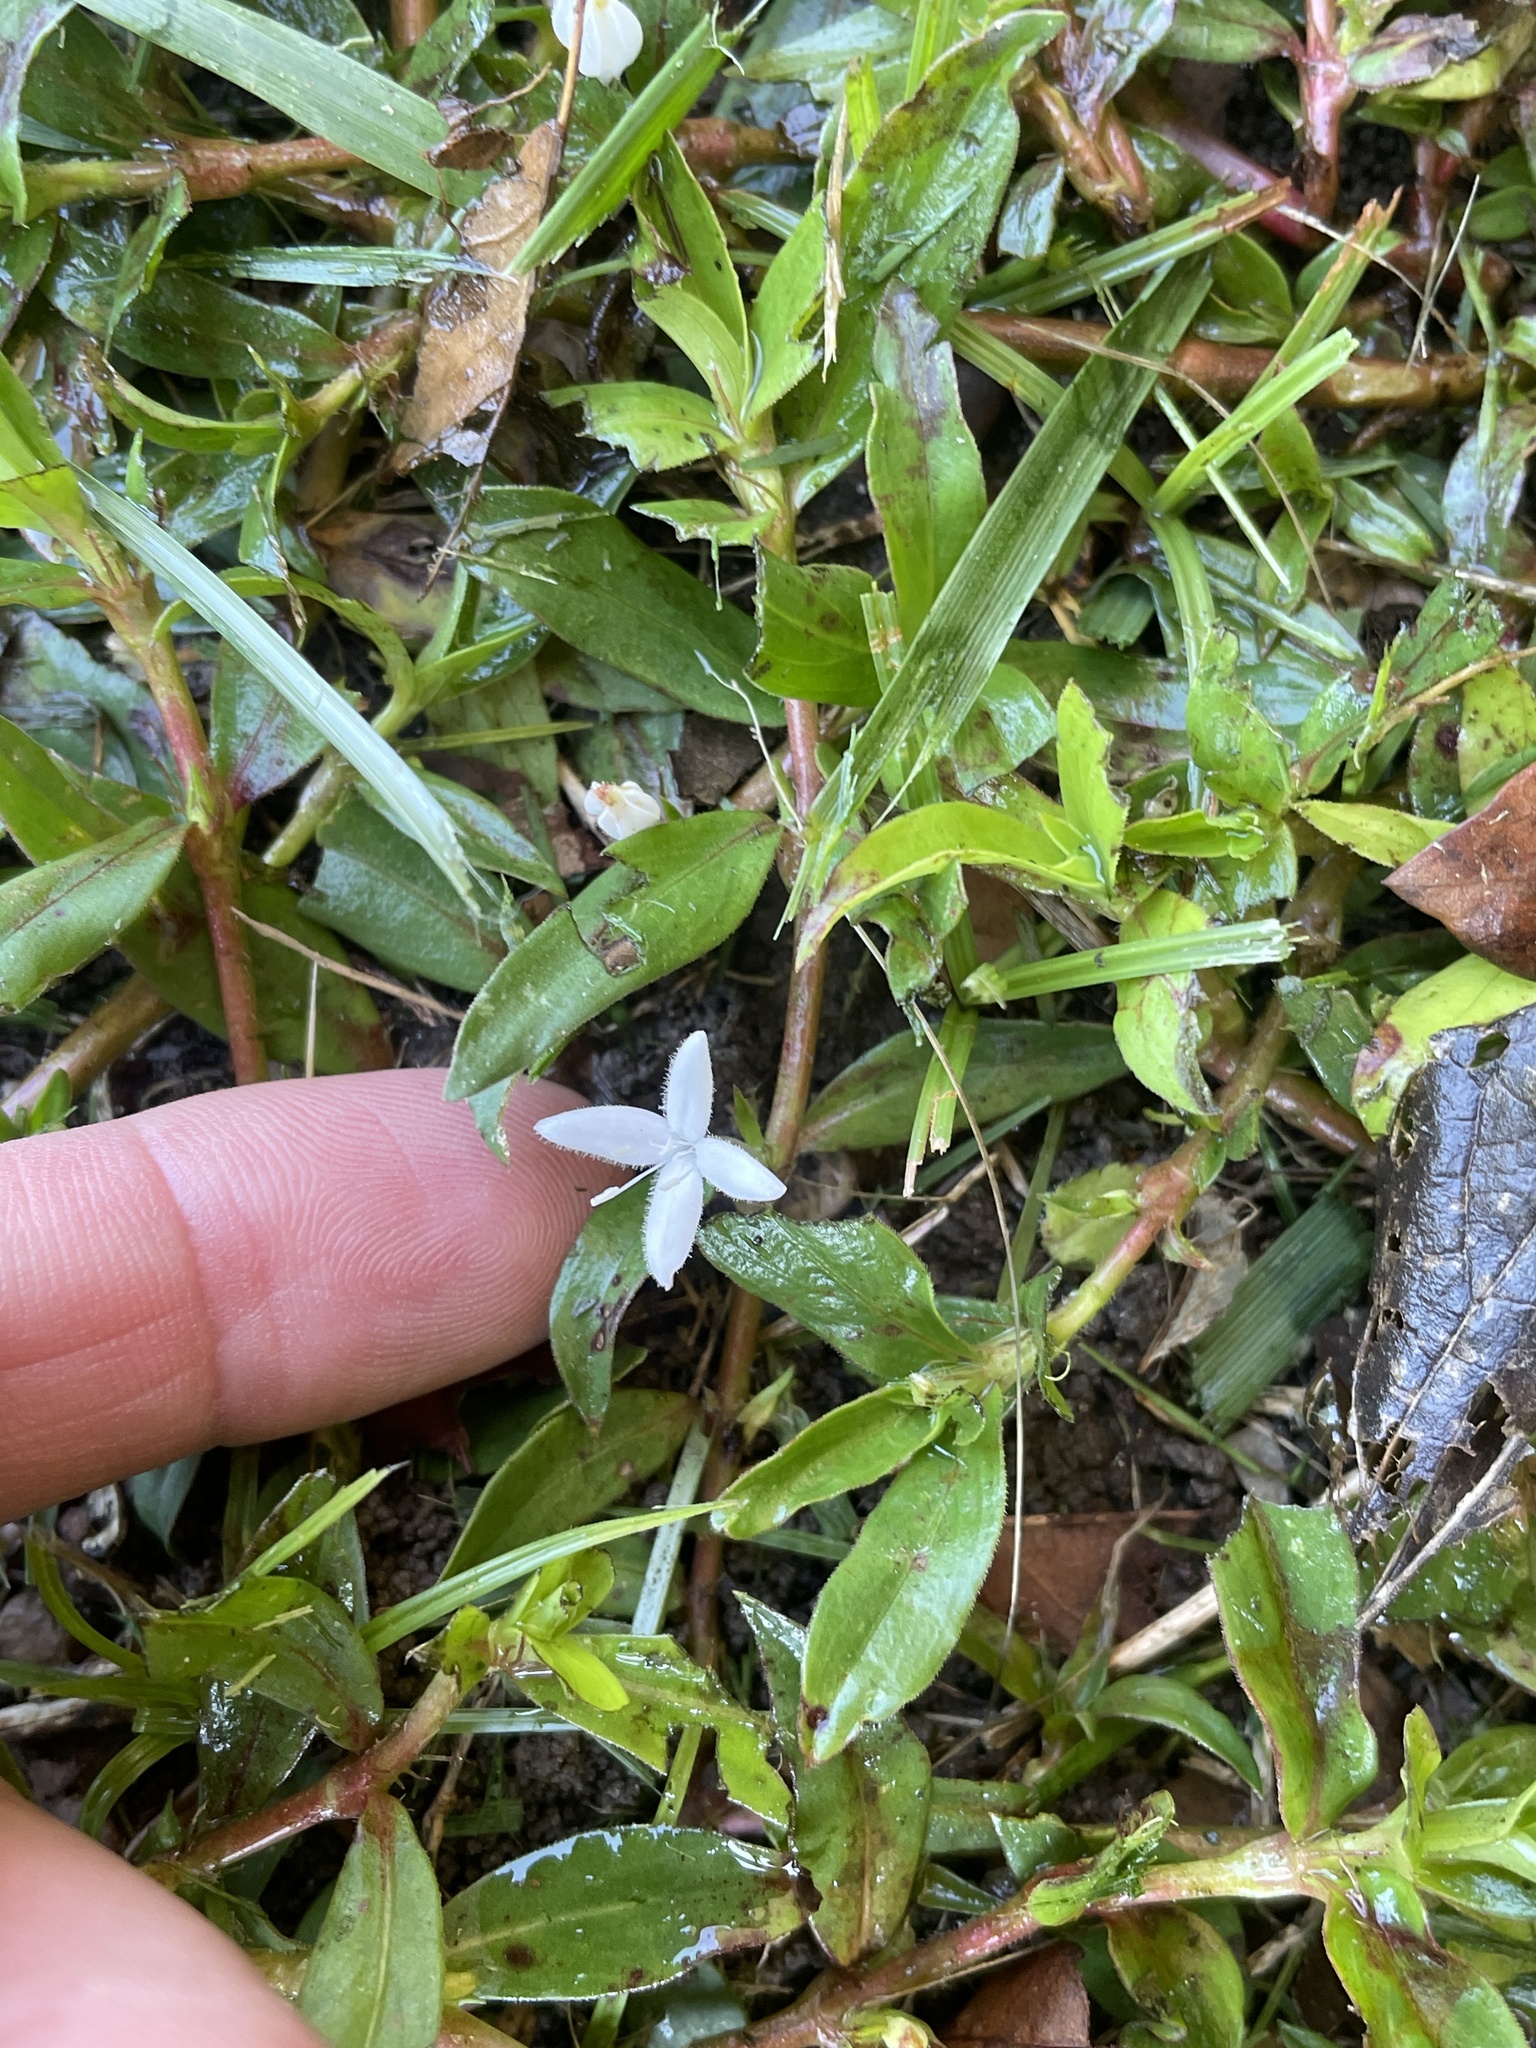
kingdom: Plantae
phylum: Tracheophyta
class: Magnoliopsida
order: Gentianales
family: Rubiaceae
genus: Diodia
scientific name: Diodia virginiana
